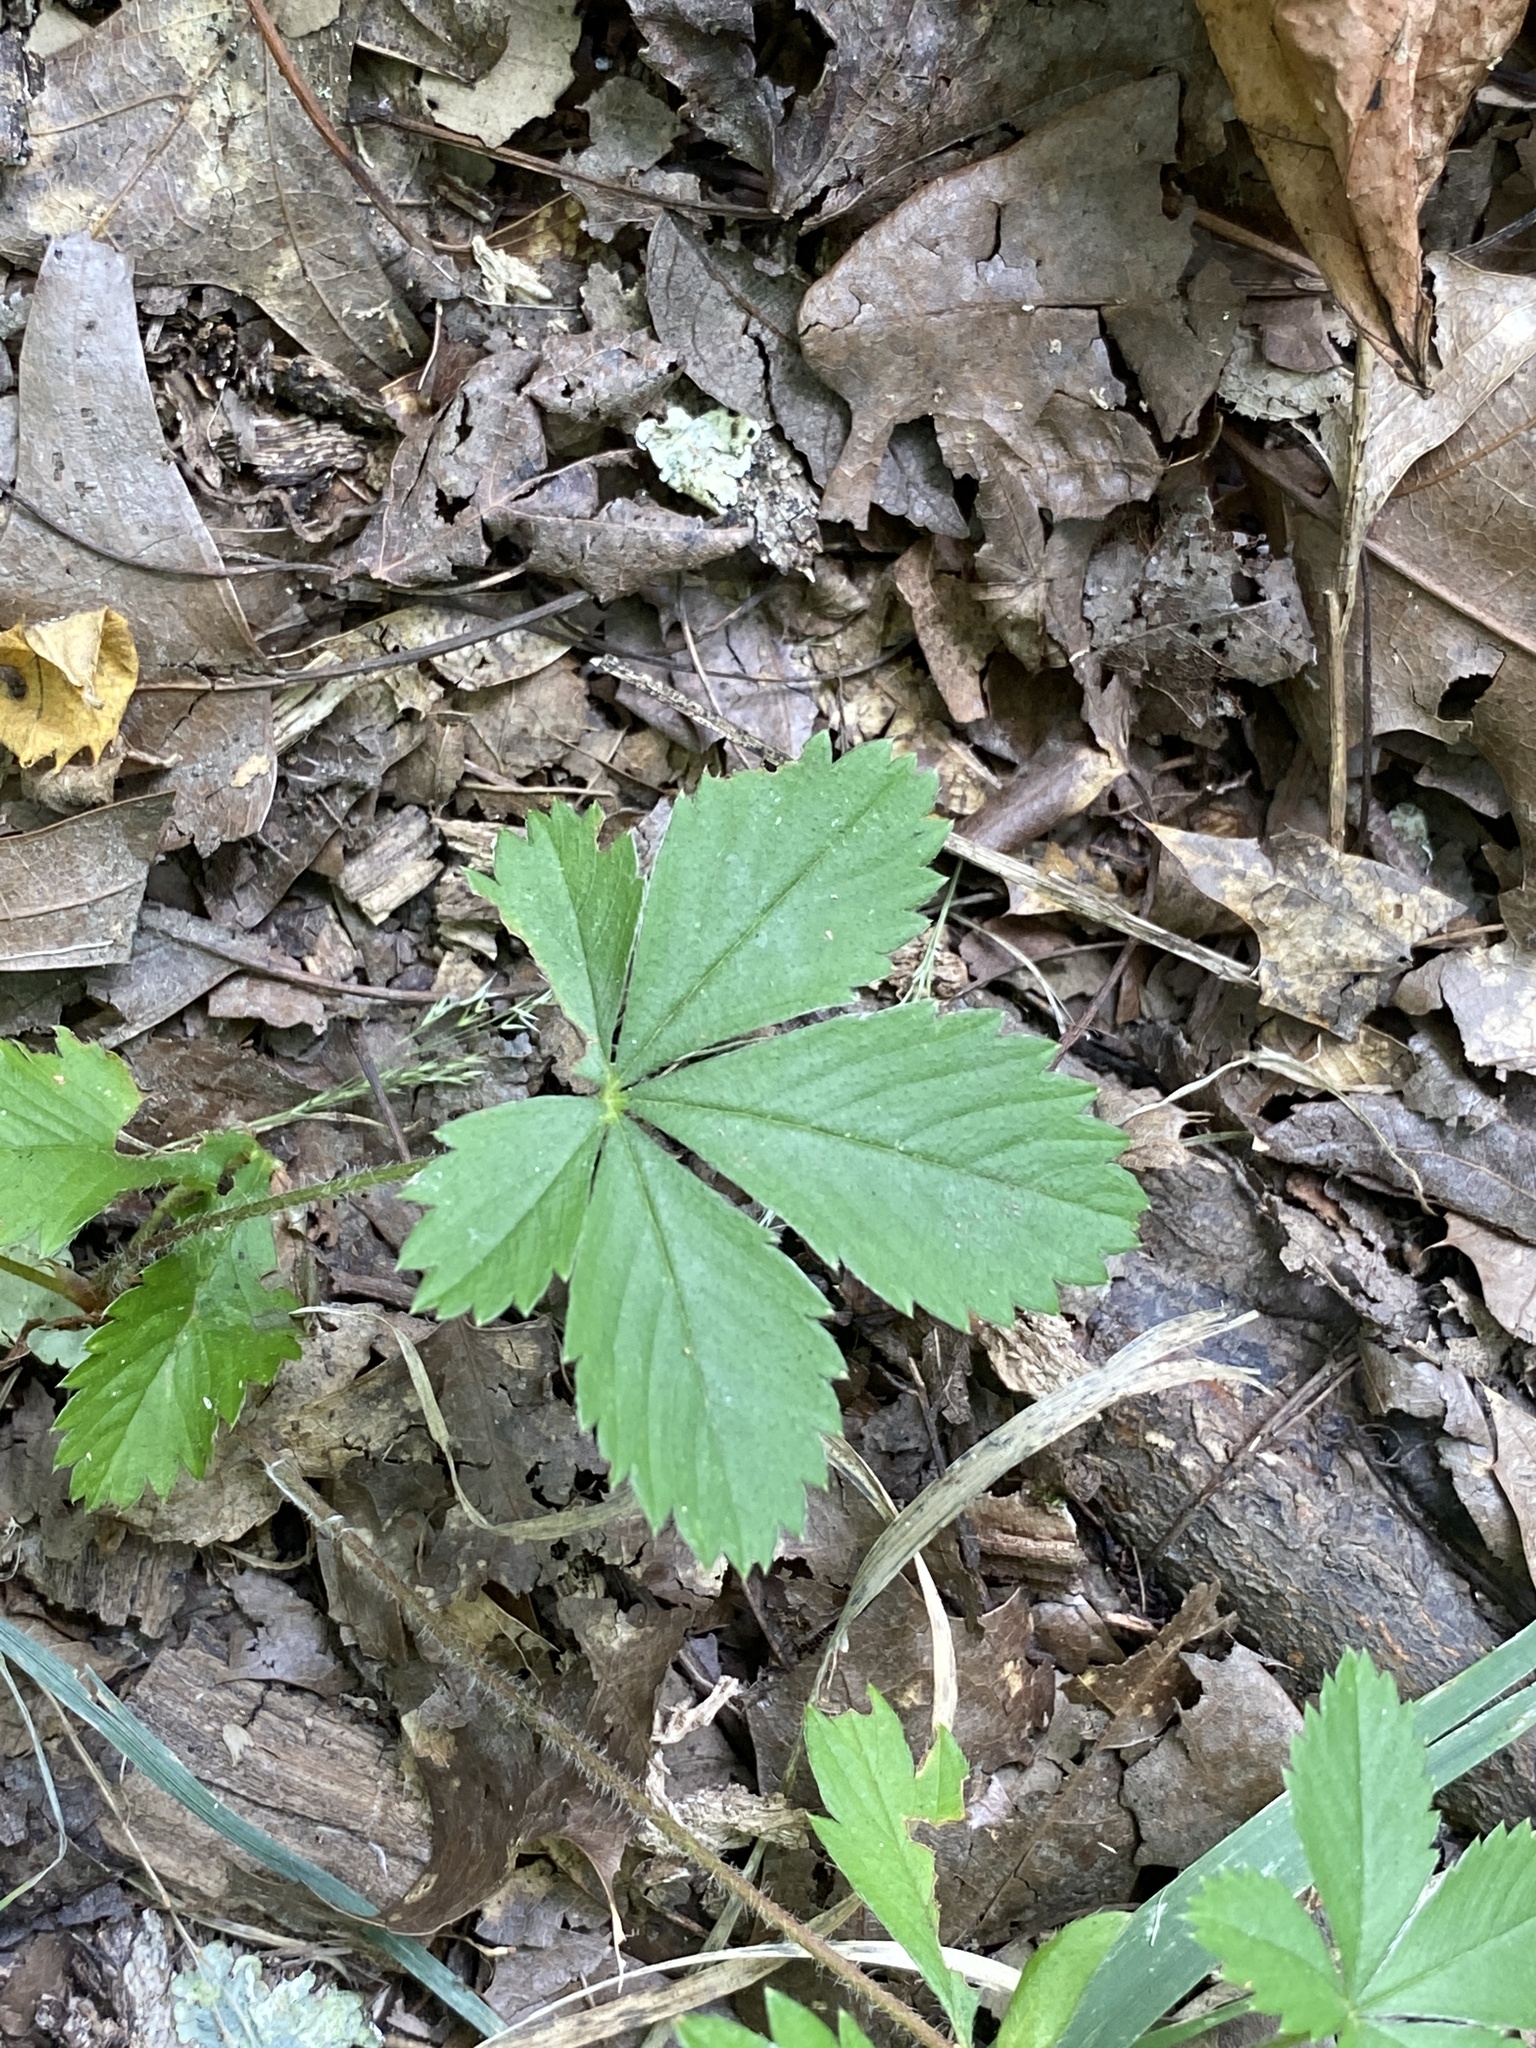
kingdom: Plantae
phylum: Tracheophyta
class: Magnoliopsida
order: Rosales
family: Rosaceae
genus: Potentilla
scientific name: Potentilla canadensis
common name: Canada cinquefoil
